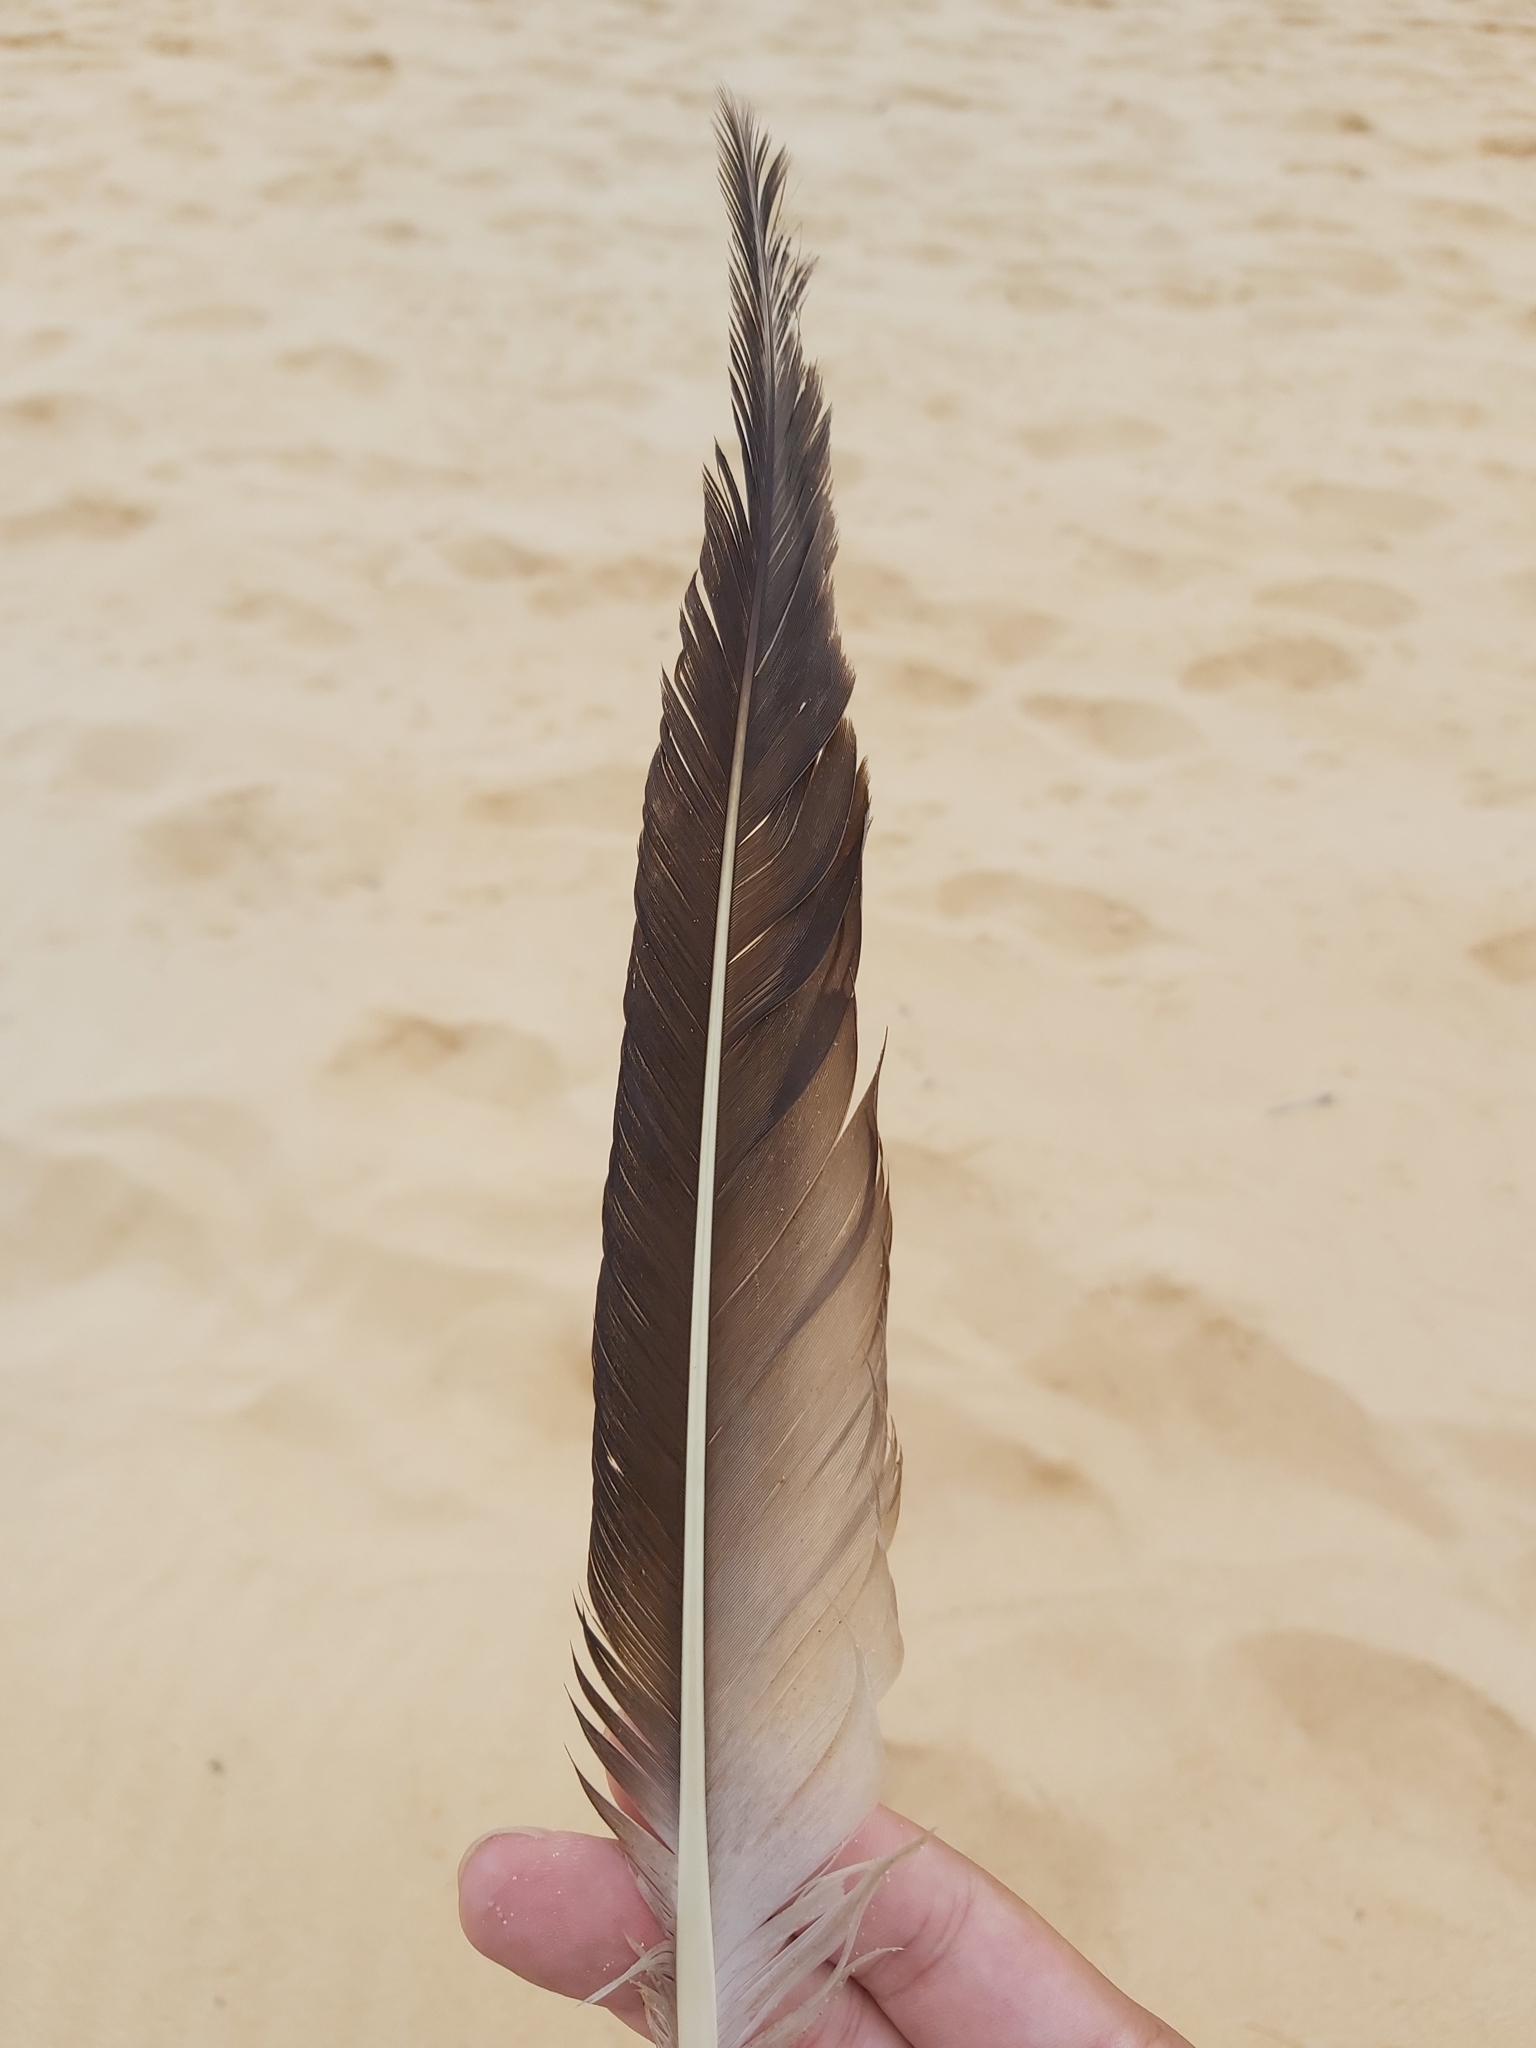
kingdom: Animalia
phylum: Chordata
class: Aves
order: Suliformes
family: Sulidae
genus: Morus
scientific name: Morus serrator
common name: Australasian gannet
